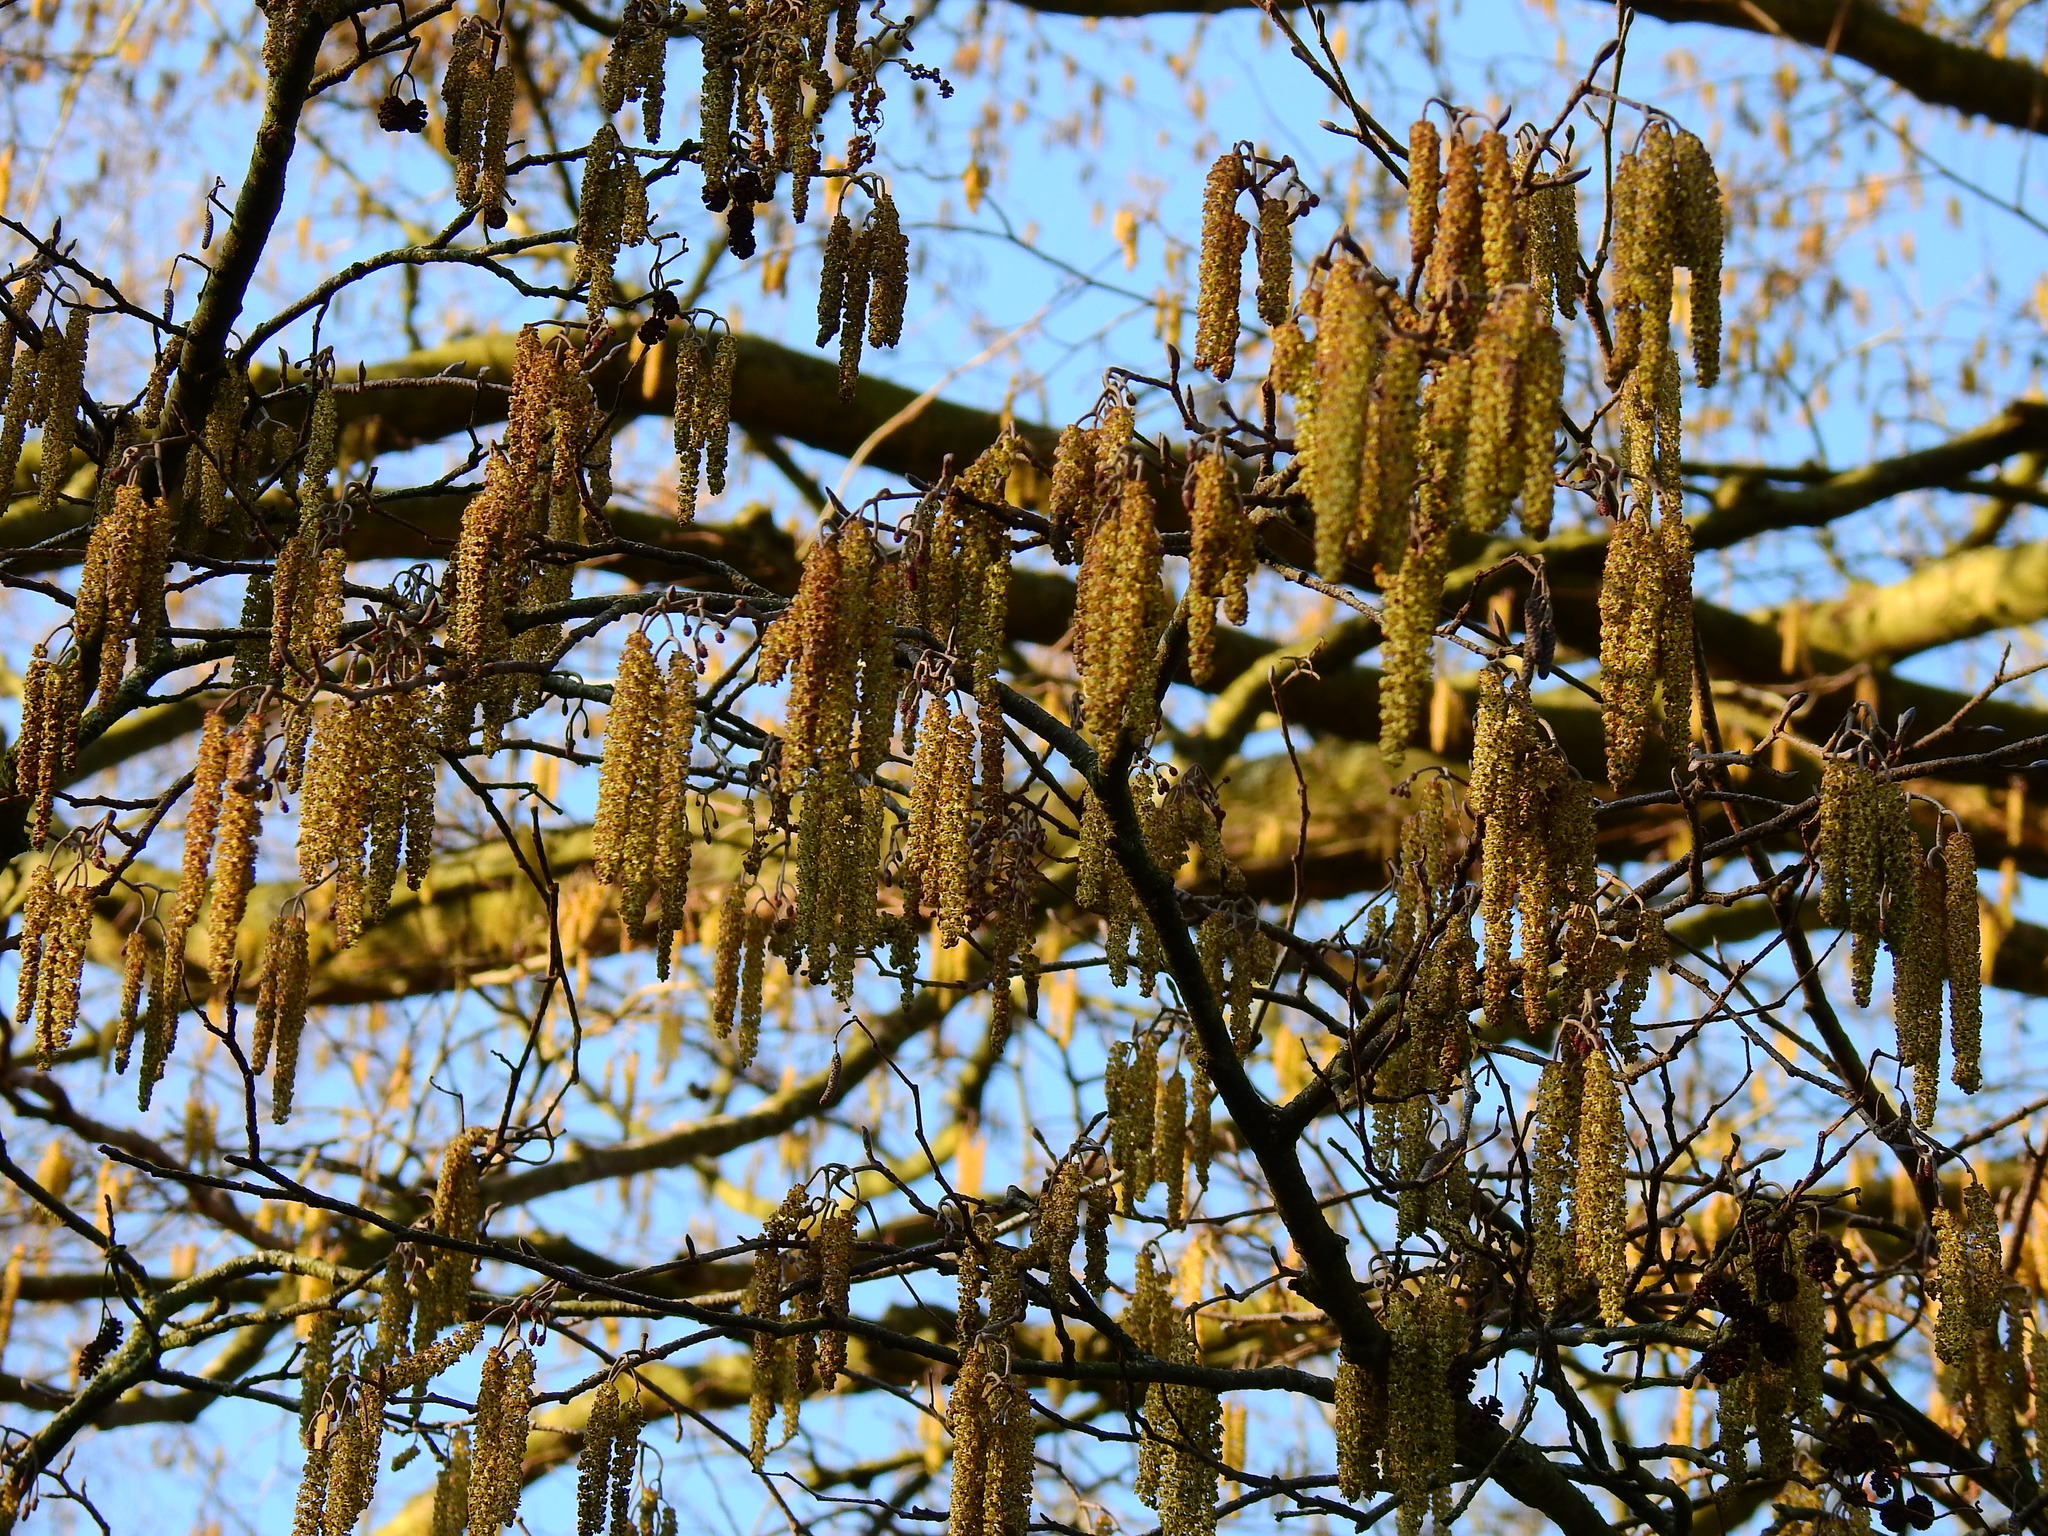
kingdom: Plantae
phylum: Tracheophyta
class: Magnoliopsida
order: Fagales
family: Betulaceae
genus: Alnus
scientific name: Alnus glutinosa
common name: Black alder
